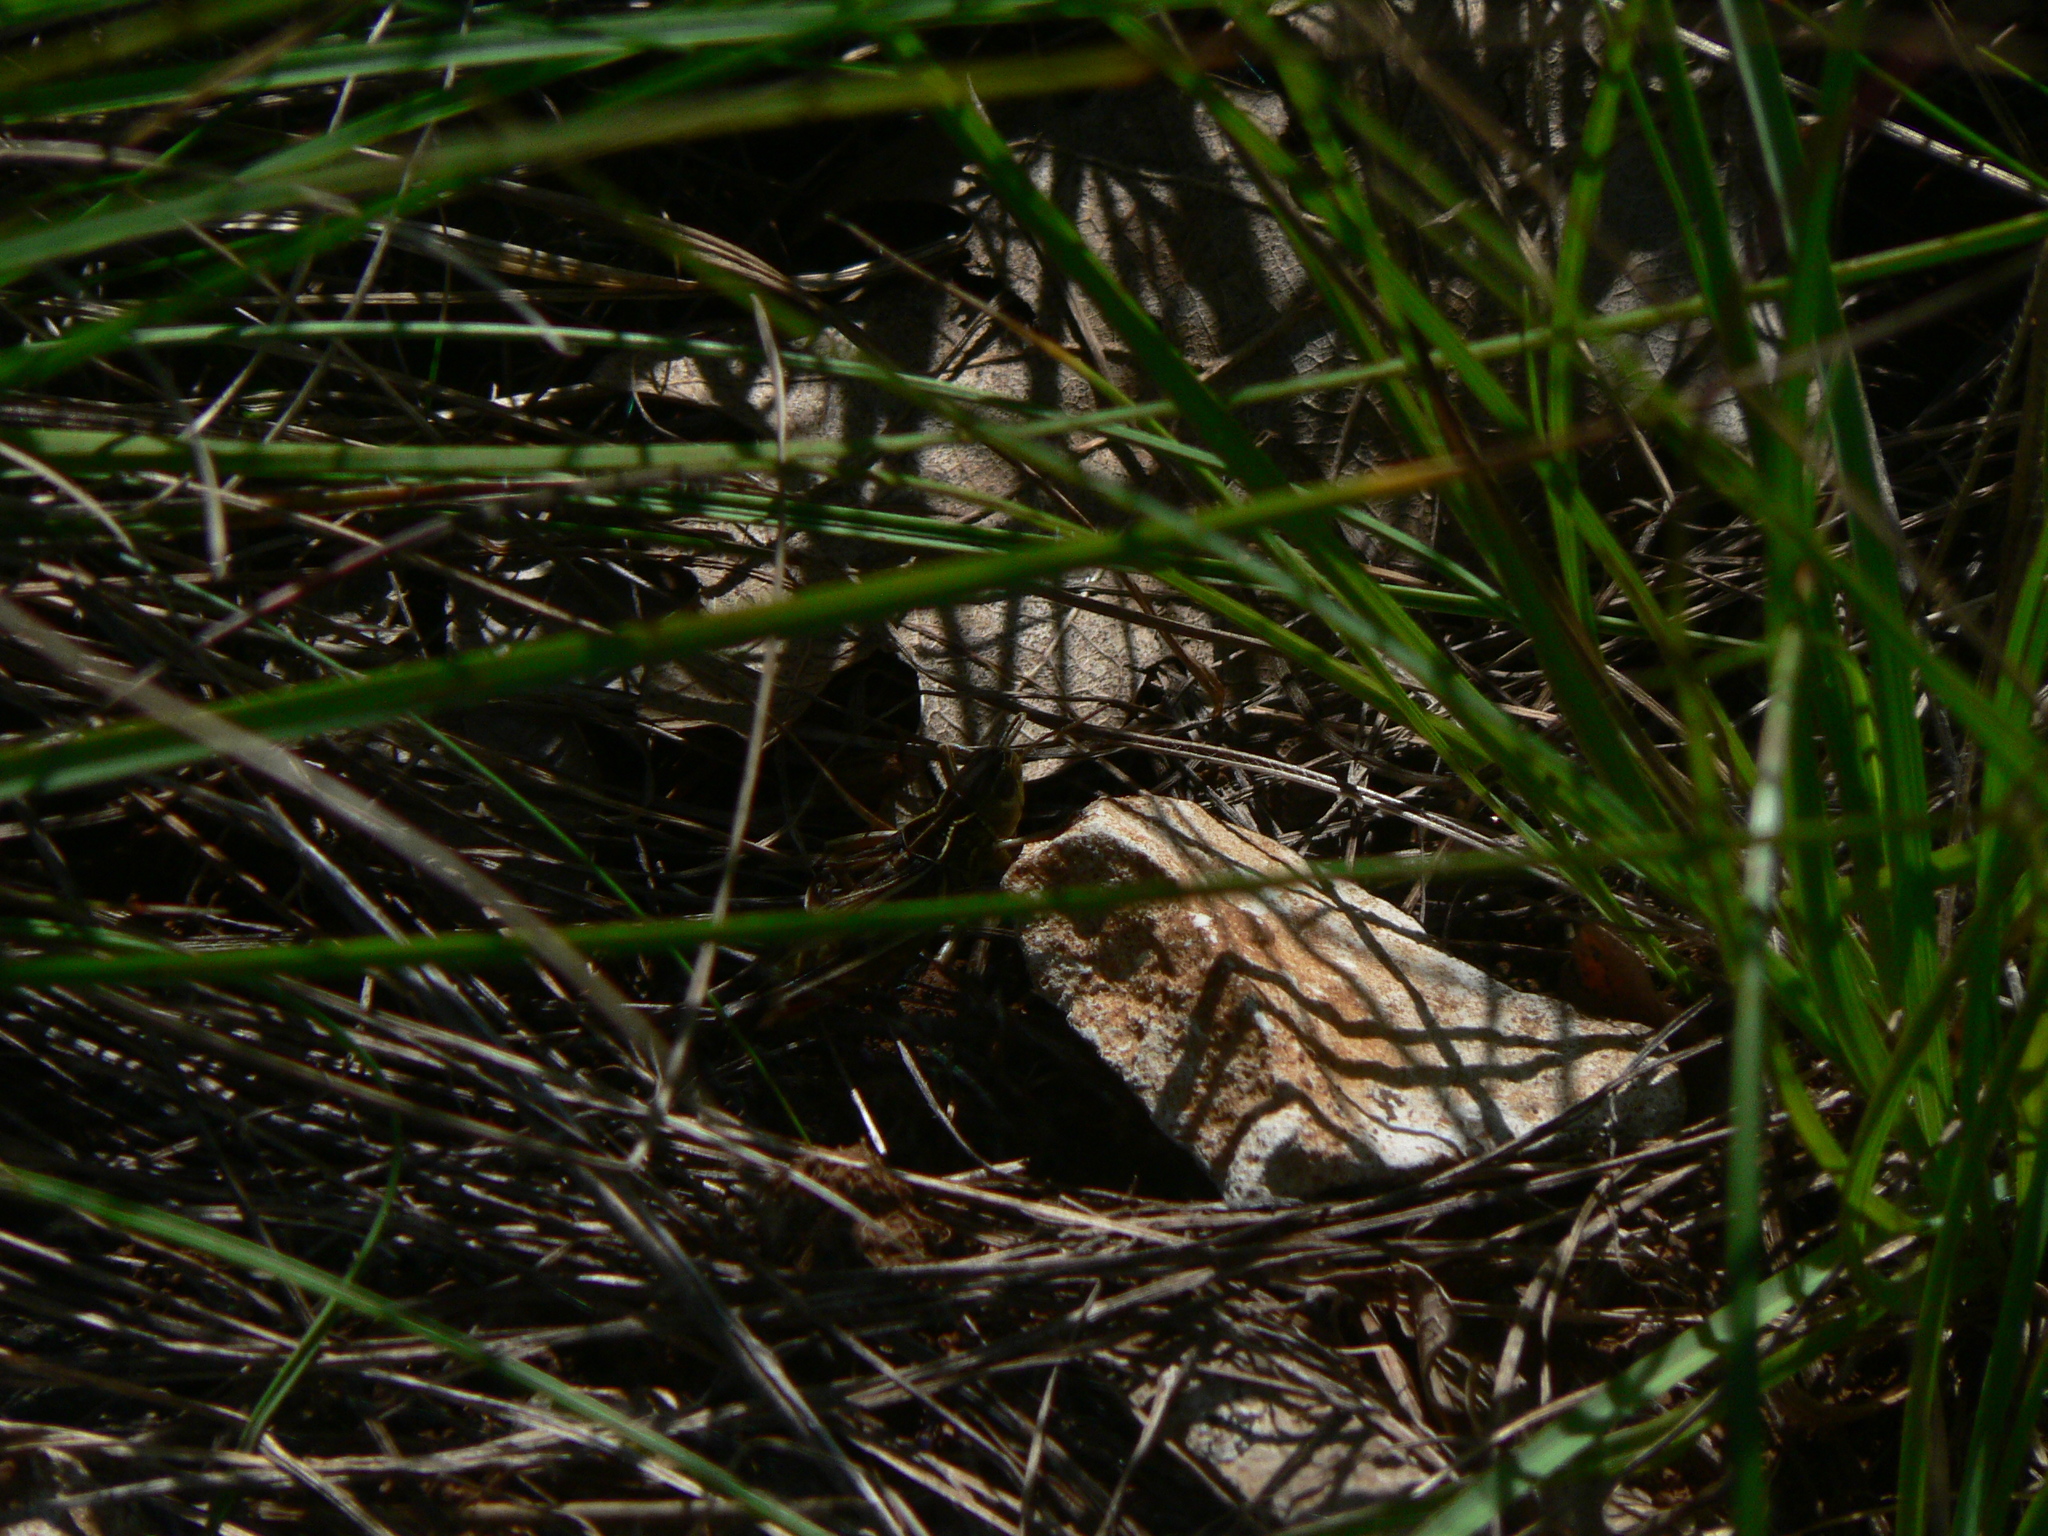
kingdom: Animalia
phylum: Arthropoda
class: Insecta
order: Orthoptera
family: Acrididae
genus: Arcyptera
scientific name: Arcyptera microptera
